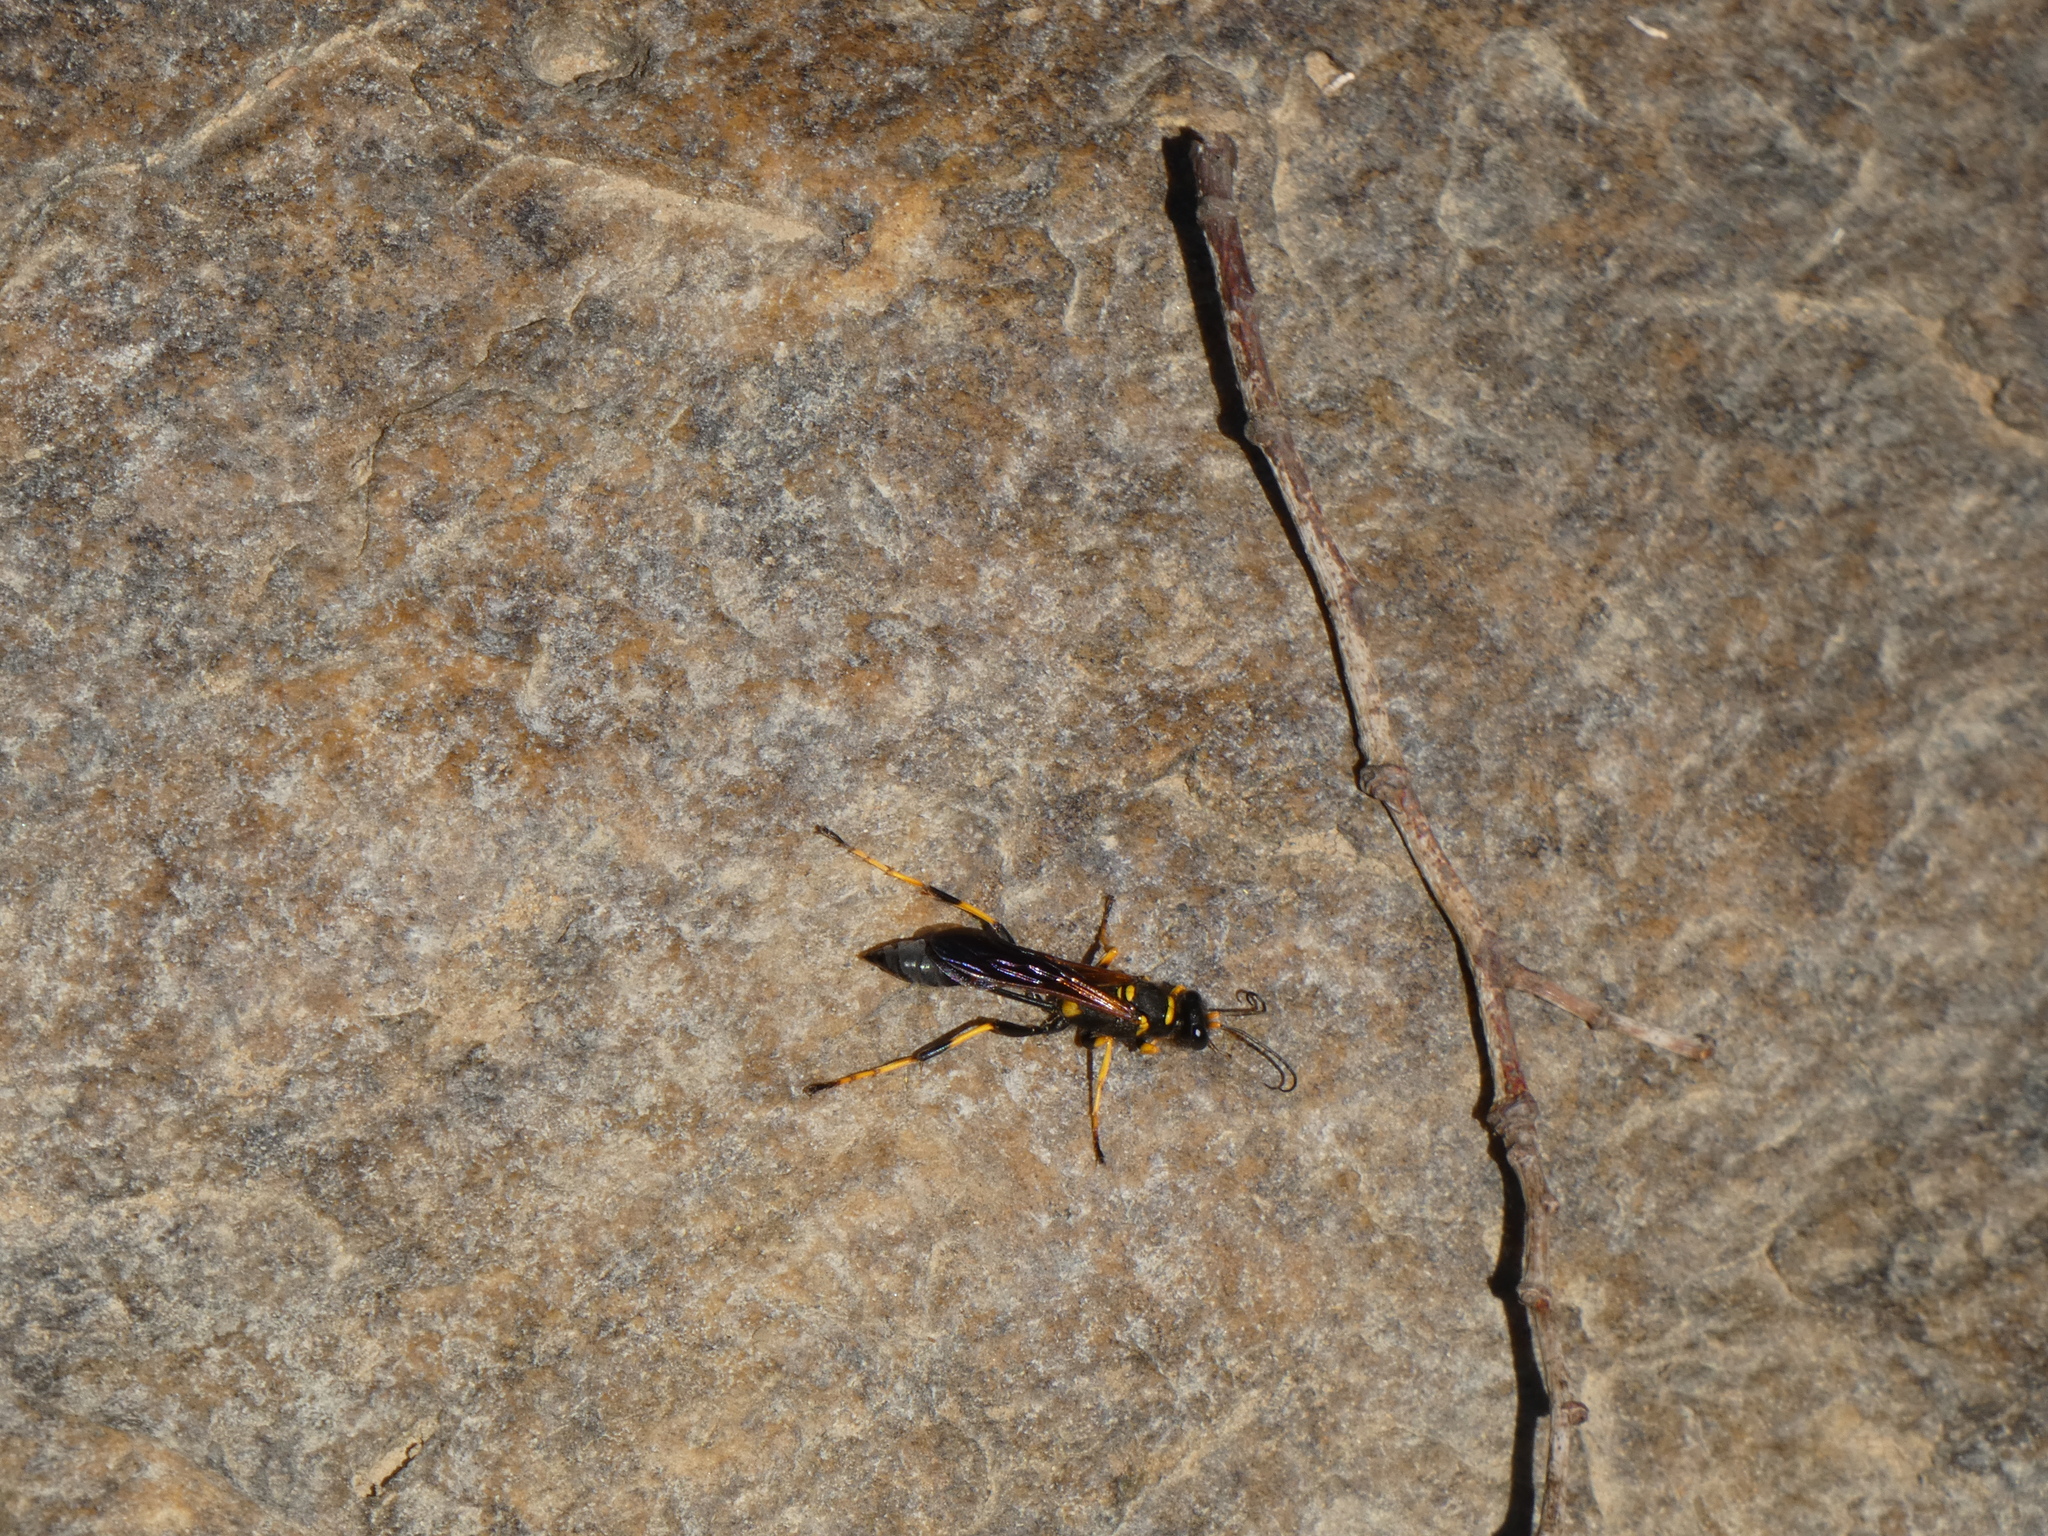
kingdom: Animalia
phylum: Arthropoda
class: Insecta
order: Hymenoptera
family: Sphecidae
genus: Sceliphron
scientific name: Sceliphron caementarium
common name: Mud dauber
